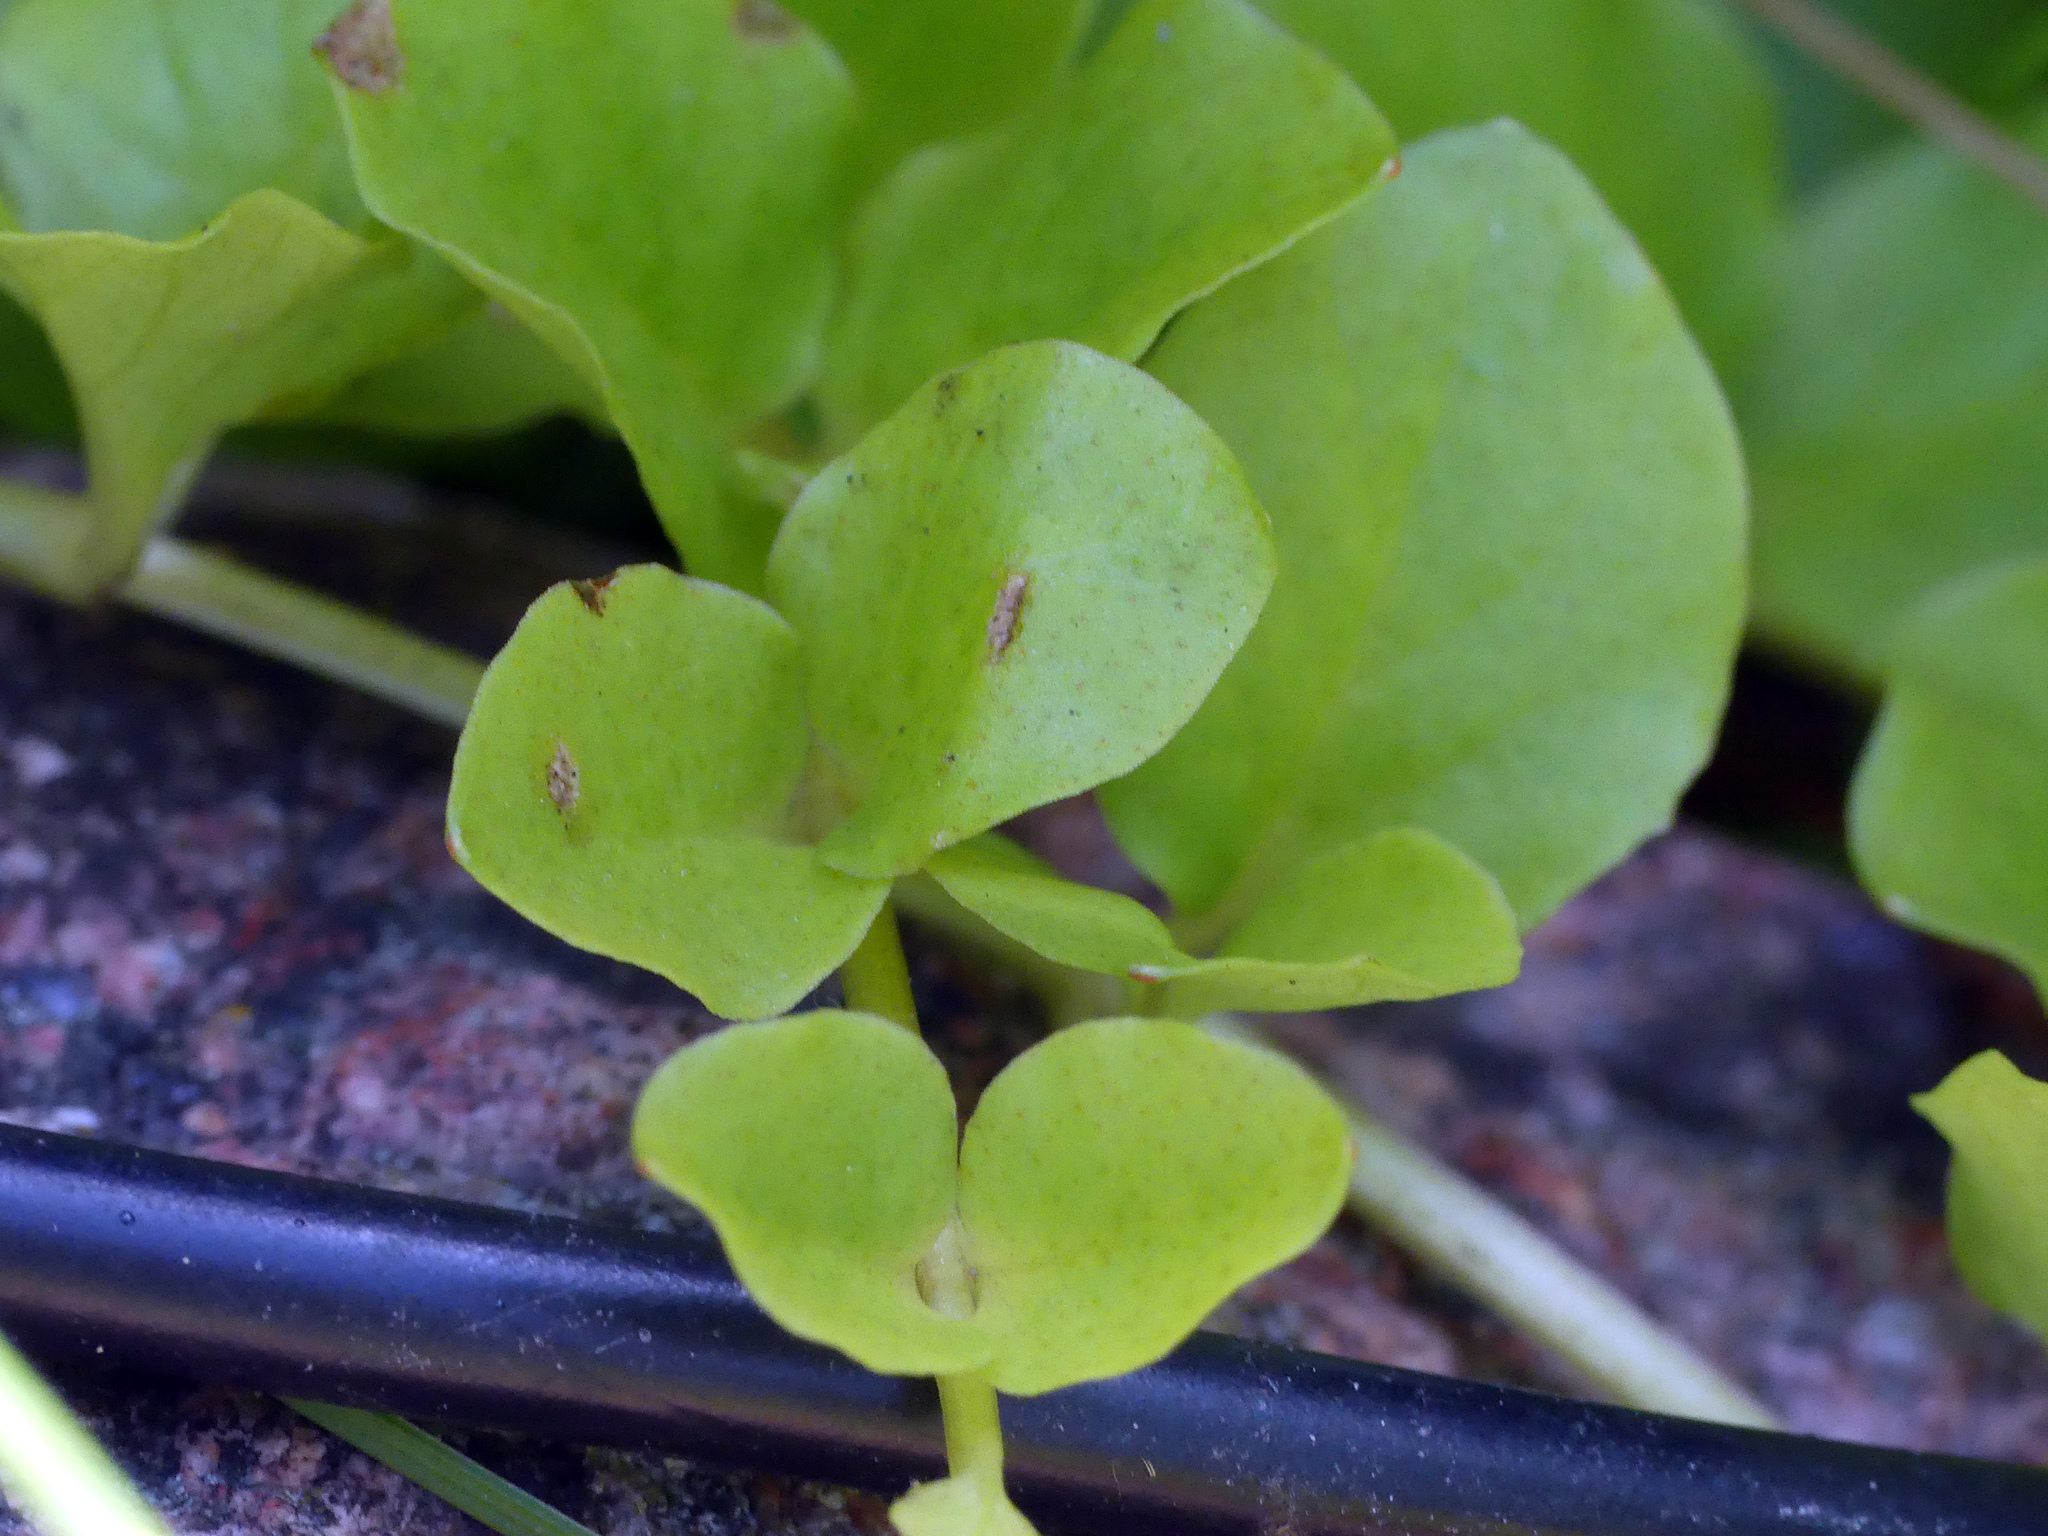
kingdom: Plantae
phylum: Tracheophyta
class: Magnoliopsida
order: Ericales
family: Primulaceae
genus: Lysimachia
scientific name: Lysimachia nummularia
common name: Moneywort
